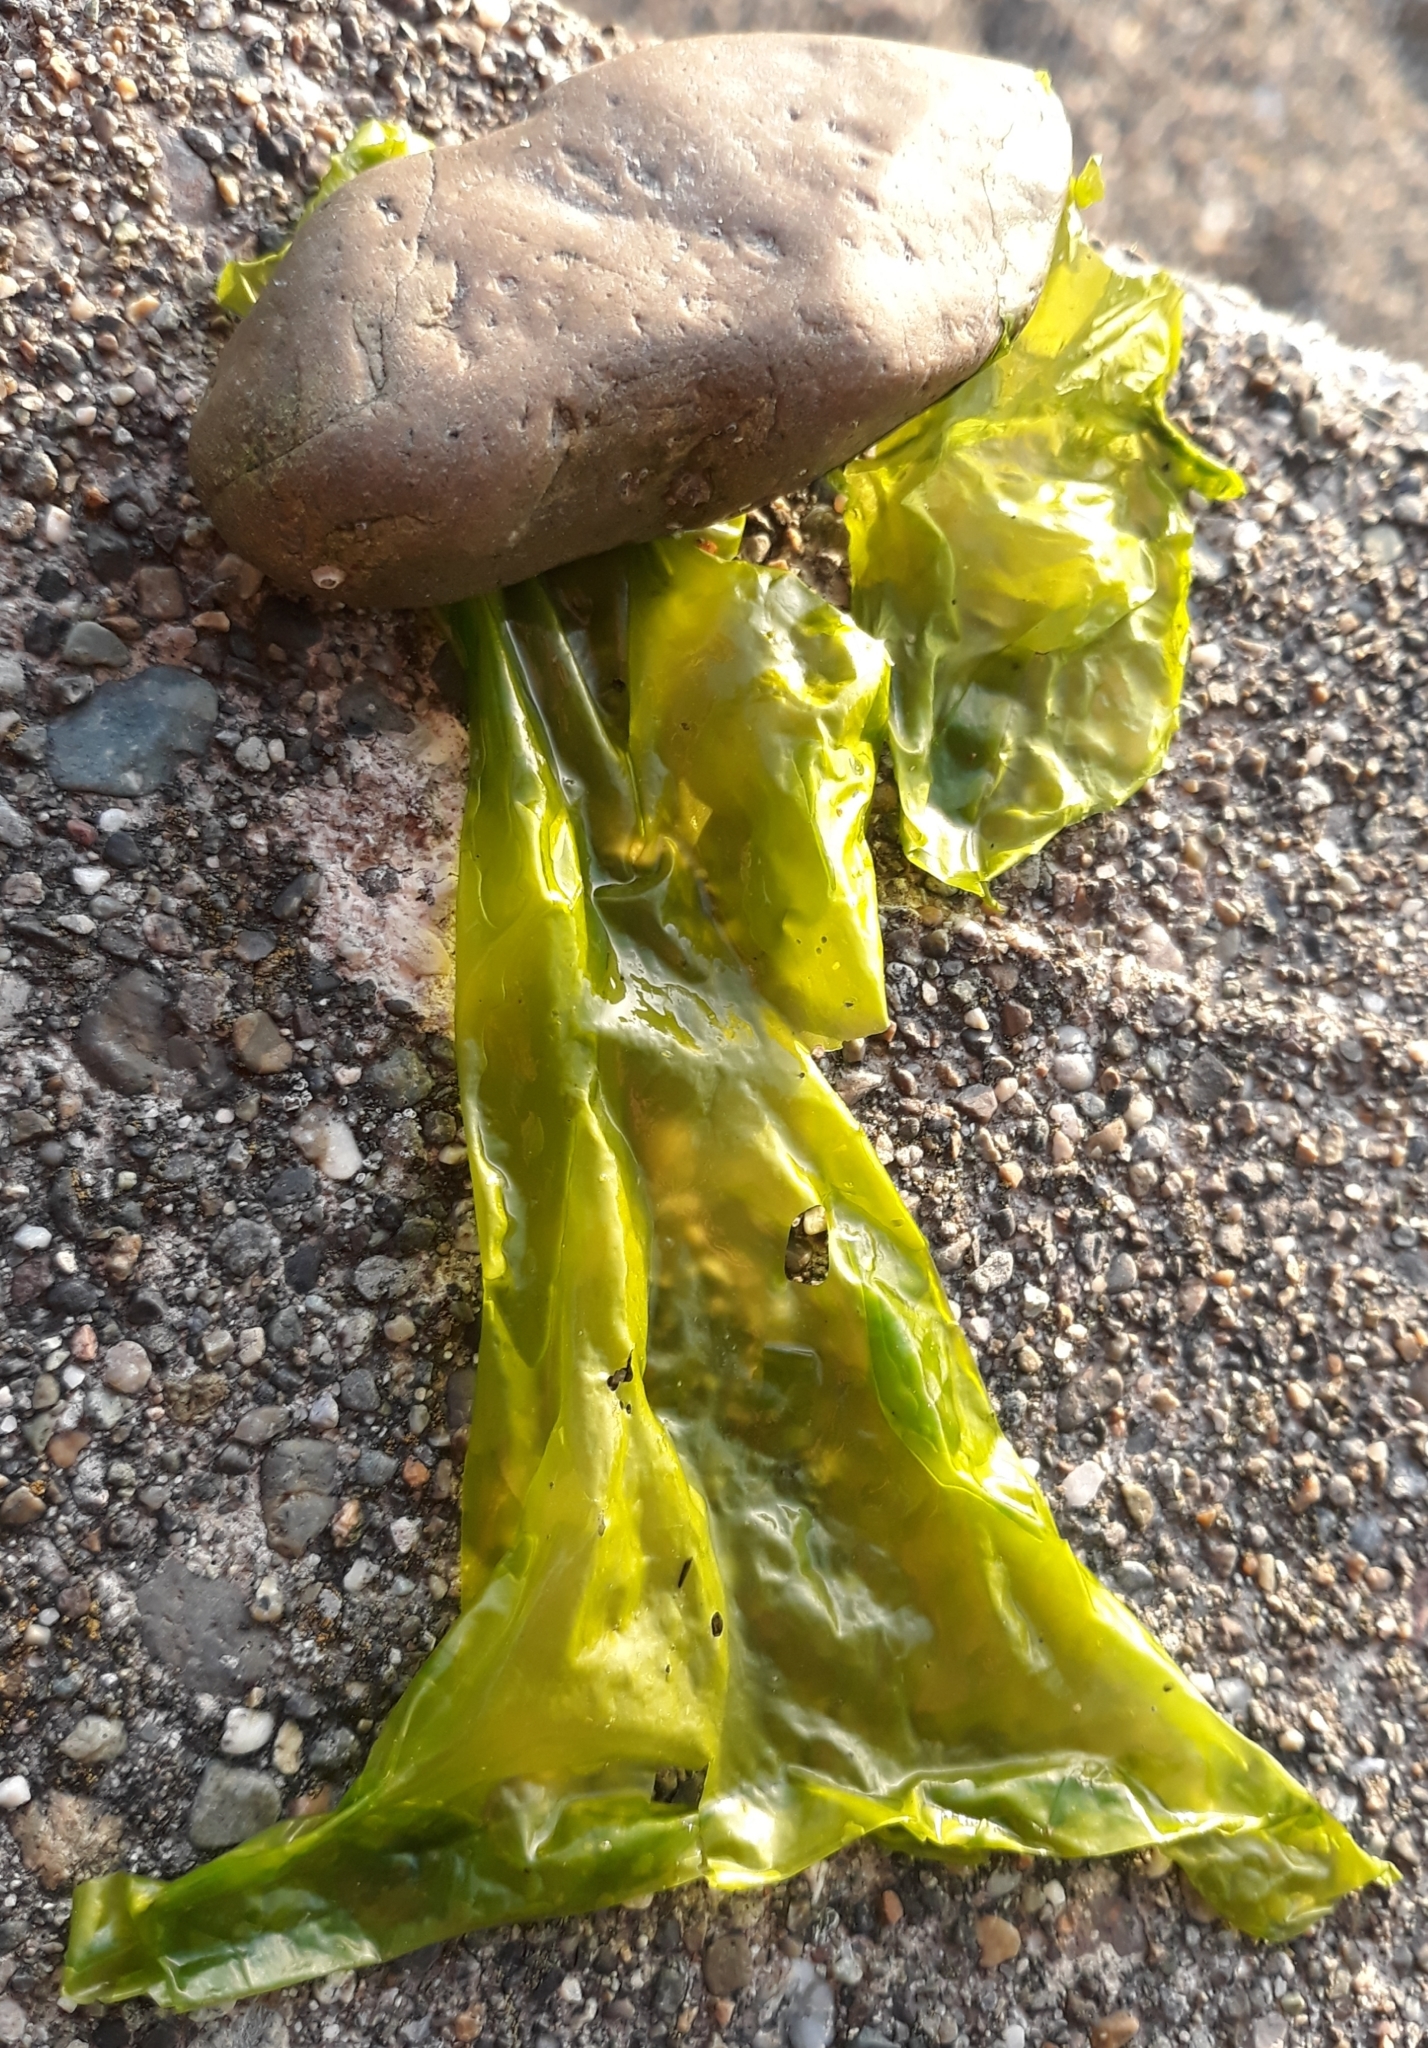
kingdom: Plantae
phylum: Chlorophyta
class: Ulvophyceae
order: Ulvales
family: Ulvaceae
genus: Ulva
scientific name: Ulva lactuca
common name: Sea lettuce
